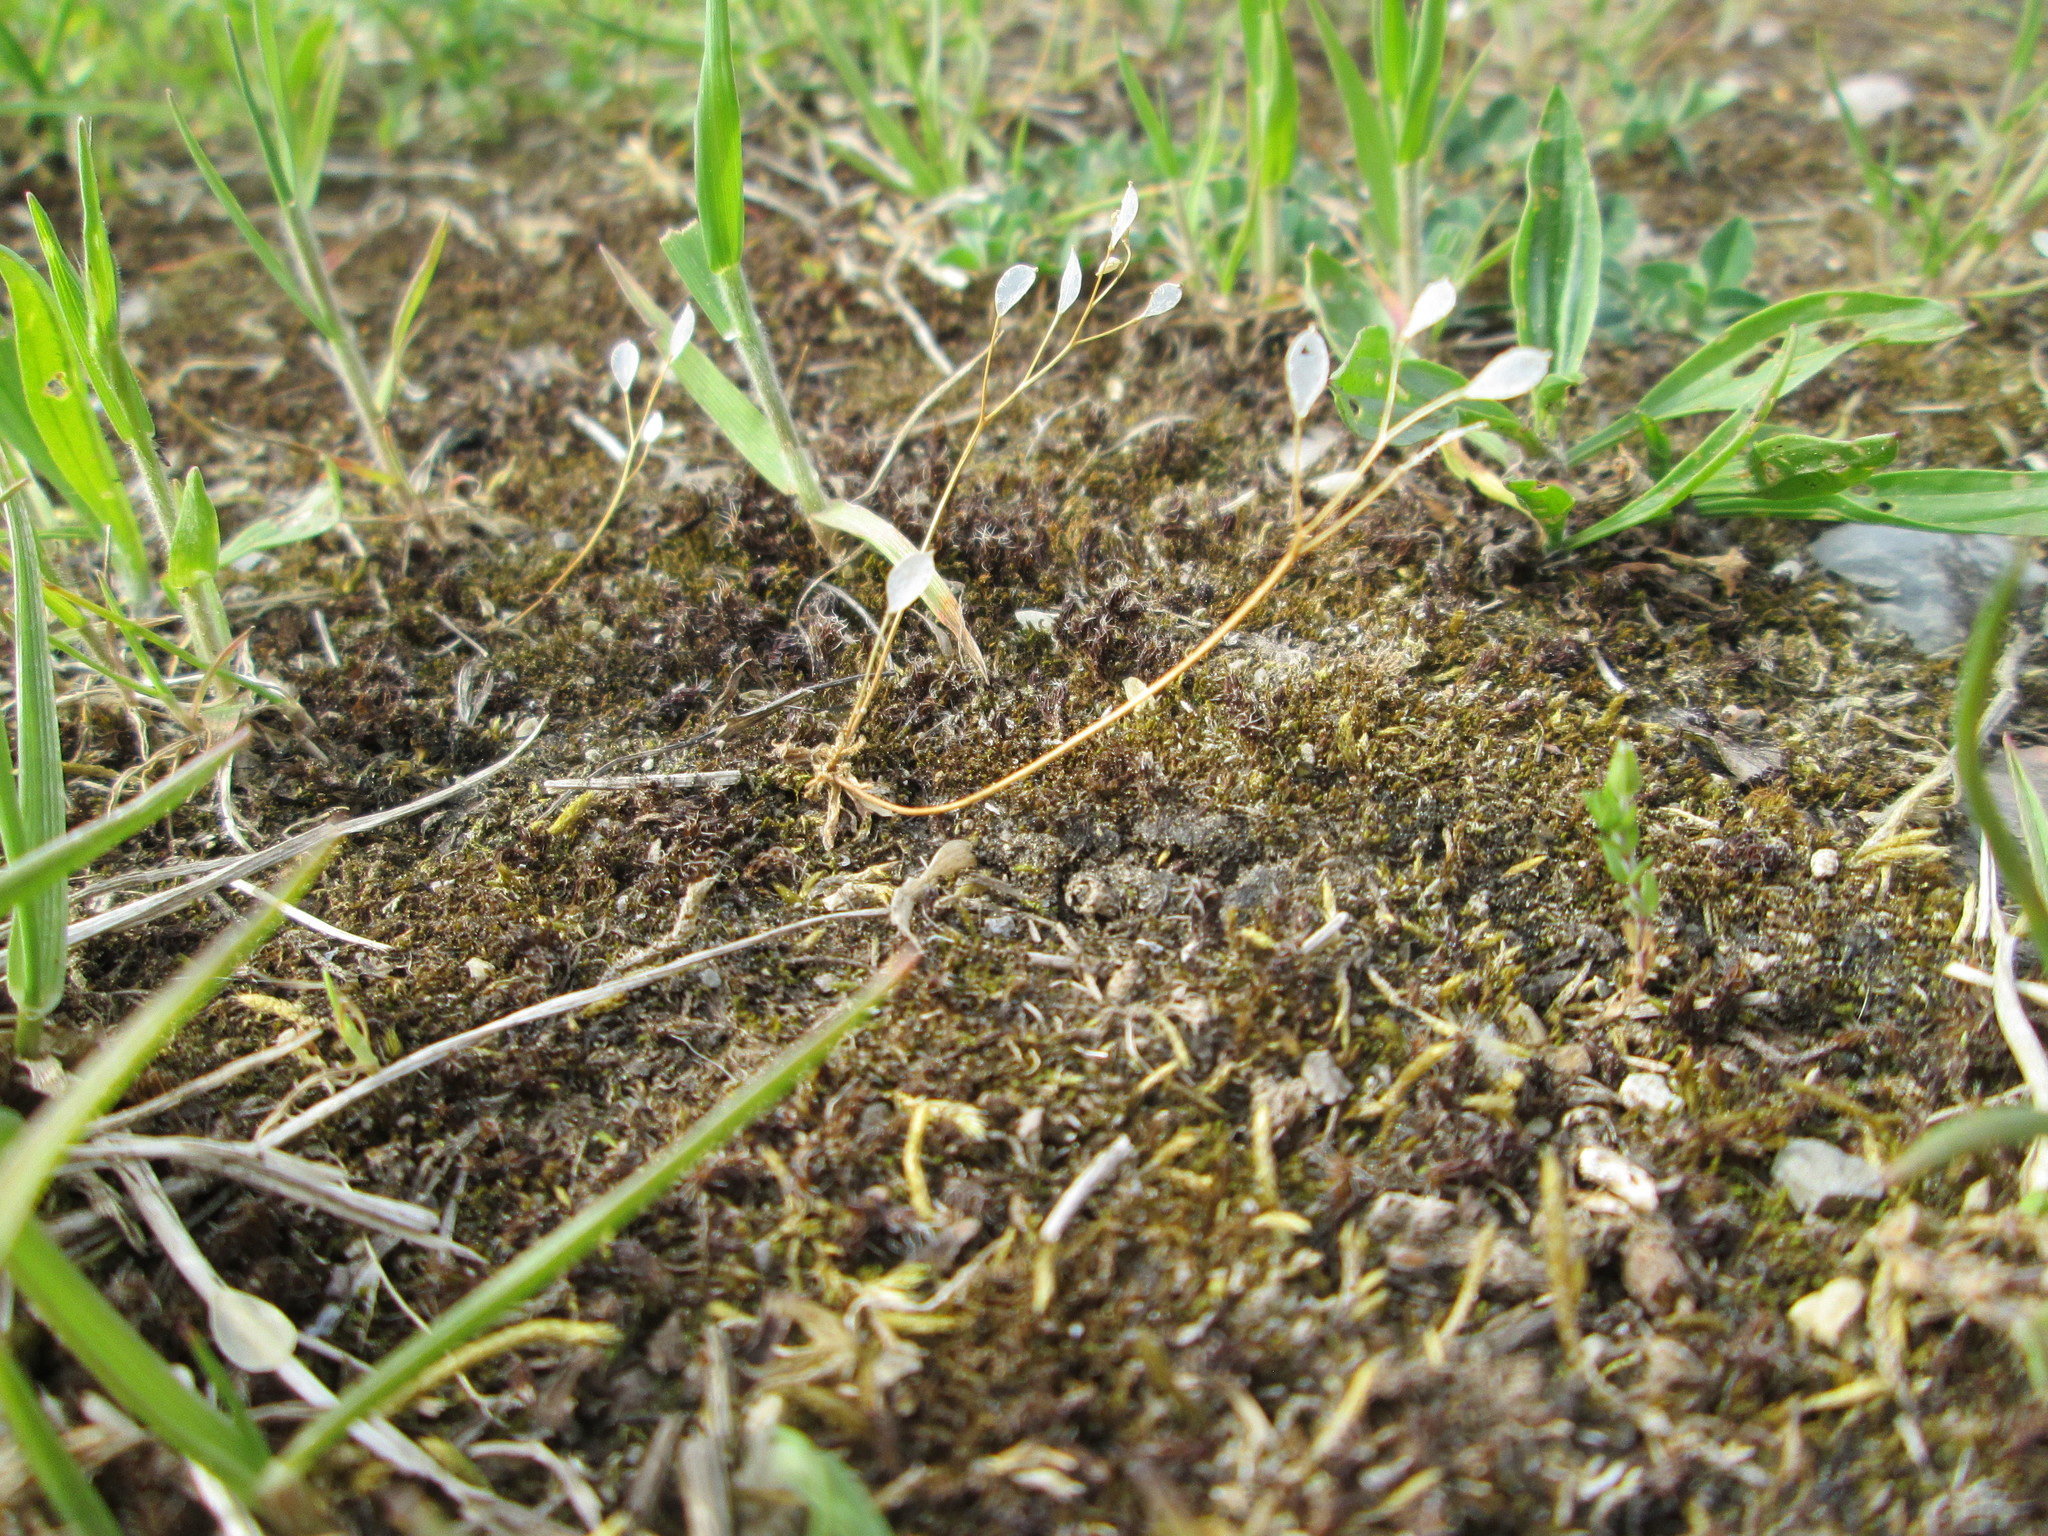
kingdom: Plantae
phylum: Tracheophyta
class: Magnoliopsida
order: Brassicales
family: Brassicaceae
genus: Draba
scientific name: Draba verna
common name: Spring draba
